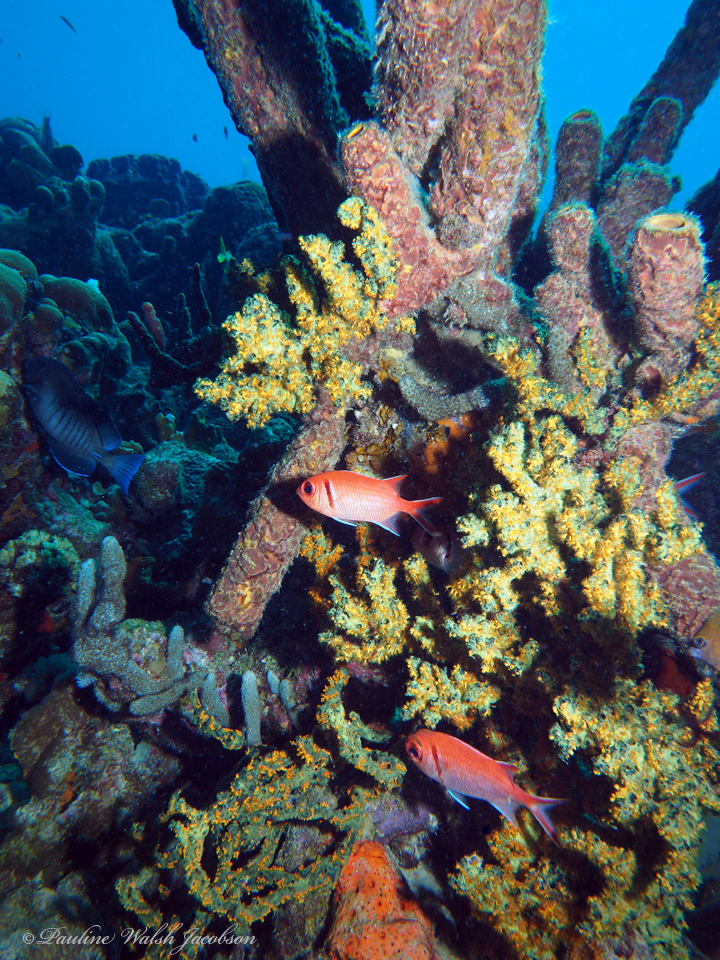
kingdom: Animalia
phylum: Porifera
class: Demospongiae
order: Poecilosclerida
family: Iotrochotidae
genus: Iotrochota
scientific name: Iotrochota birotulata
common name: Purple bleeding sponge
